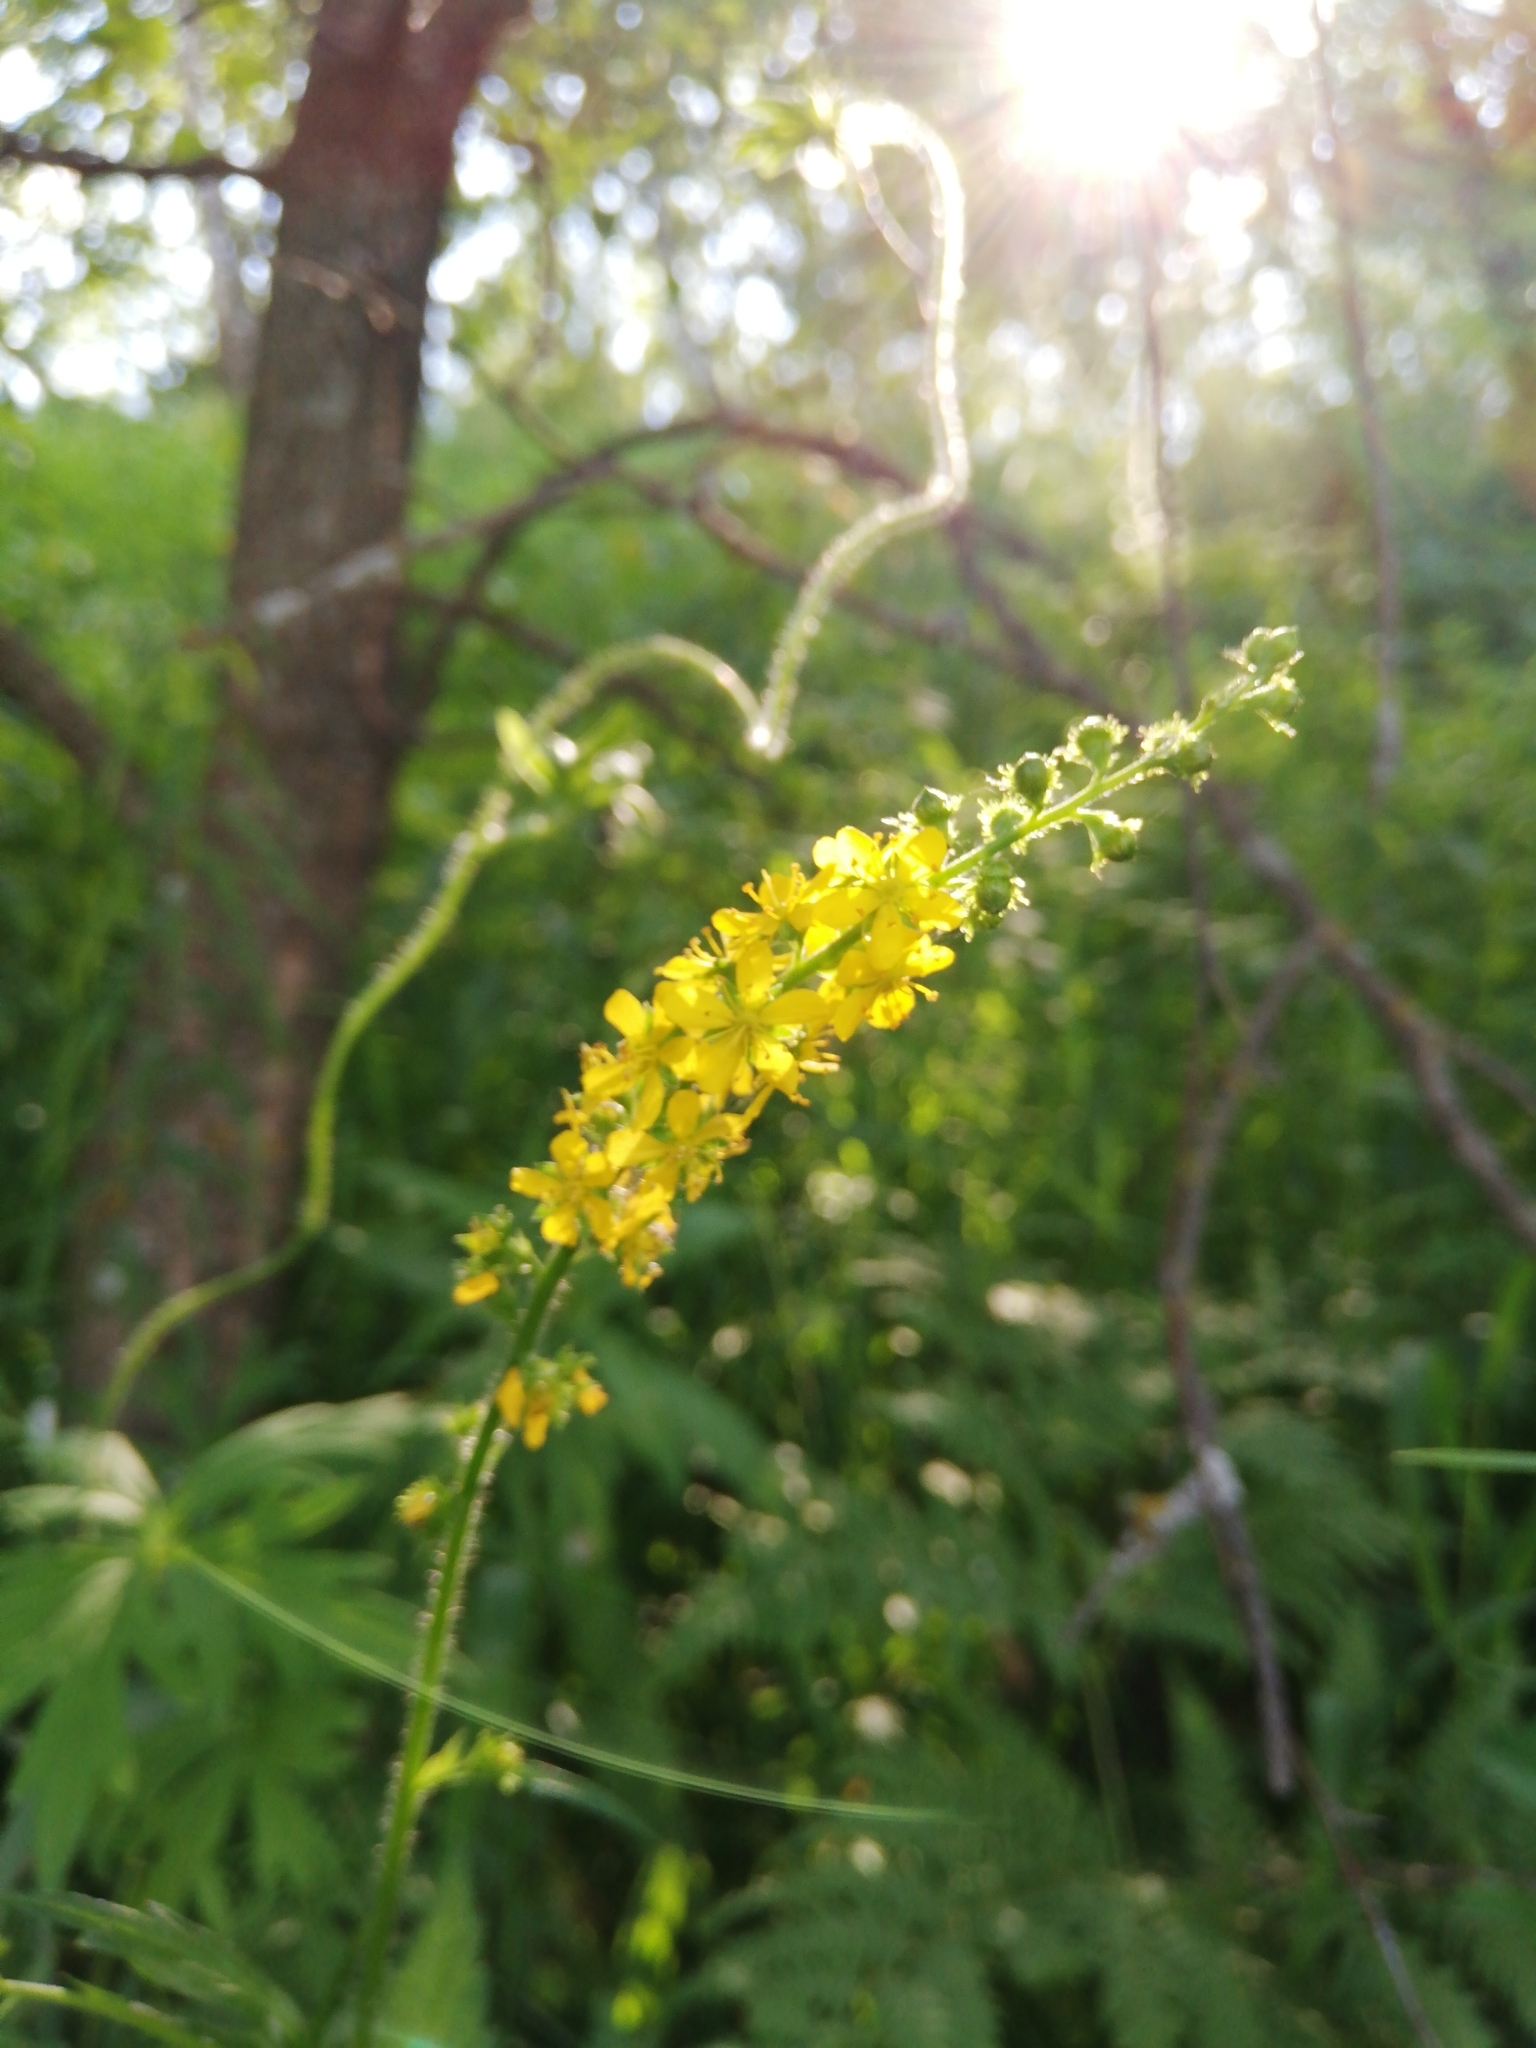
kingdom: Plantae
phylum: Tracheophyta
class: Magnoliopsida
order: Rosales
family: Rosaceae
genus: Agrimonia
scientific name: Agrimonia pilosa
